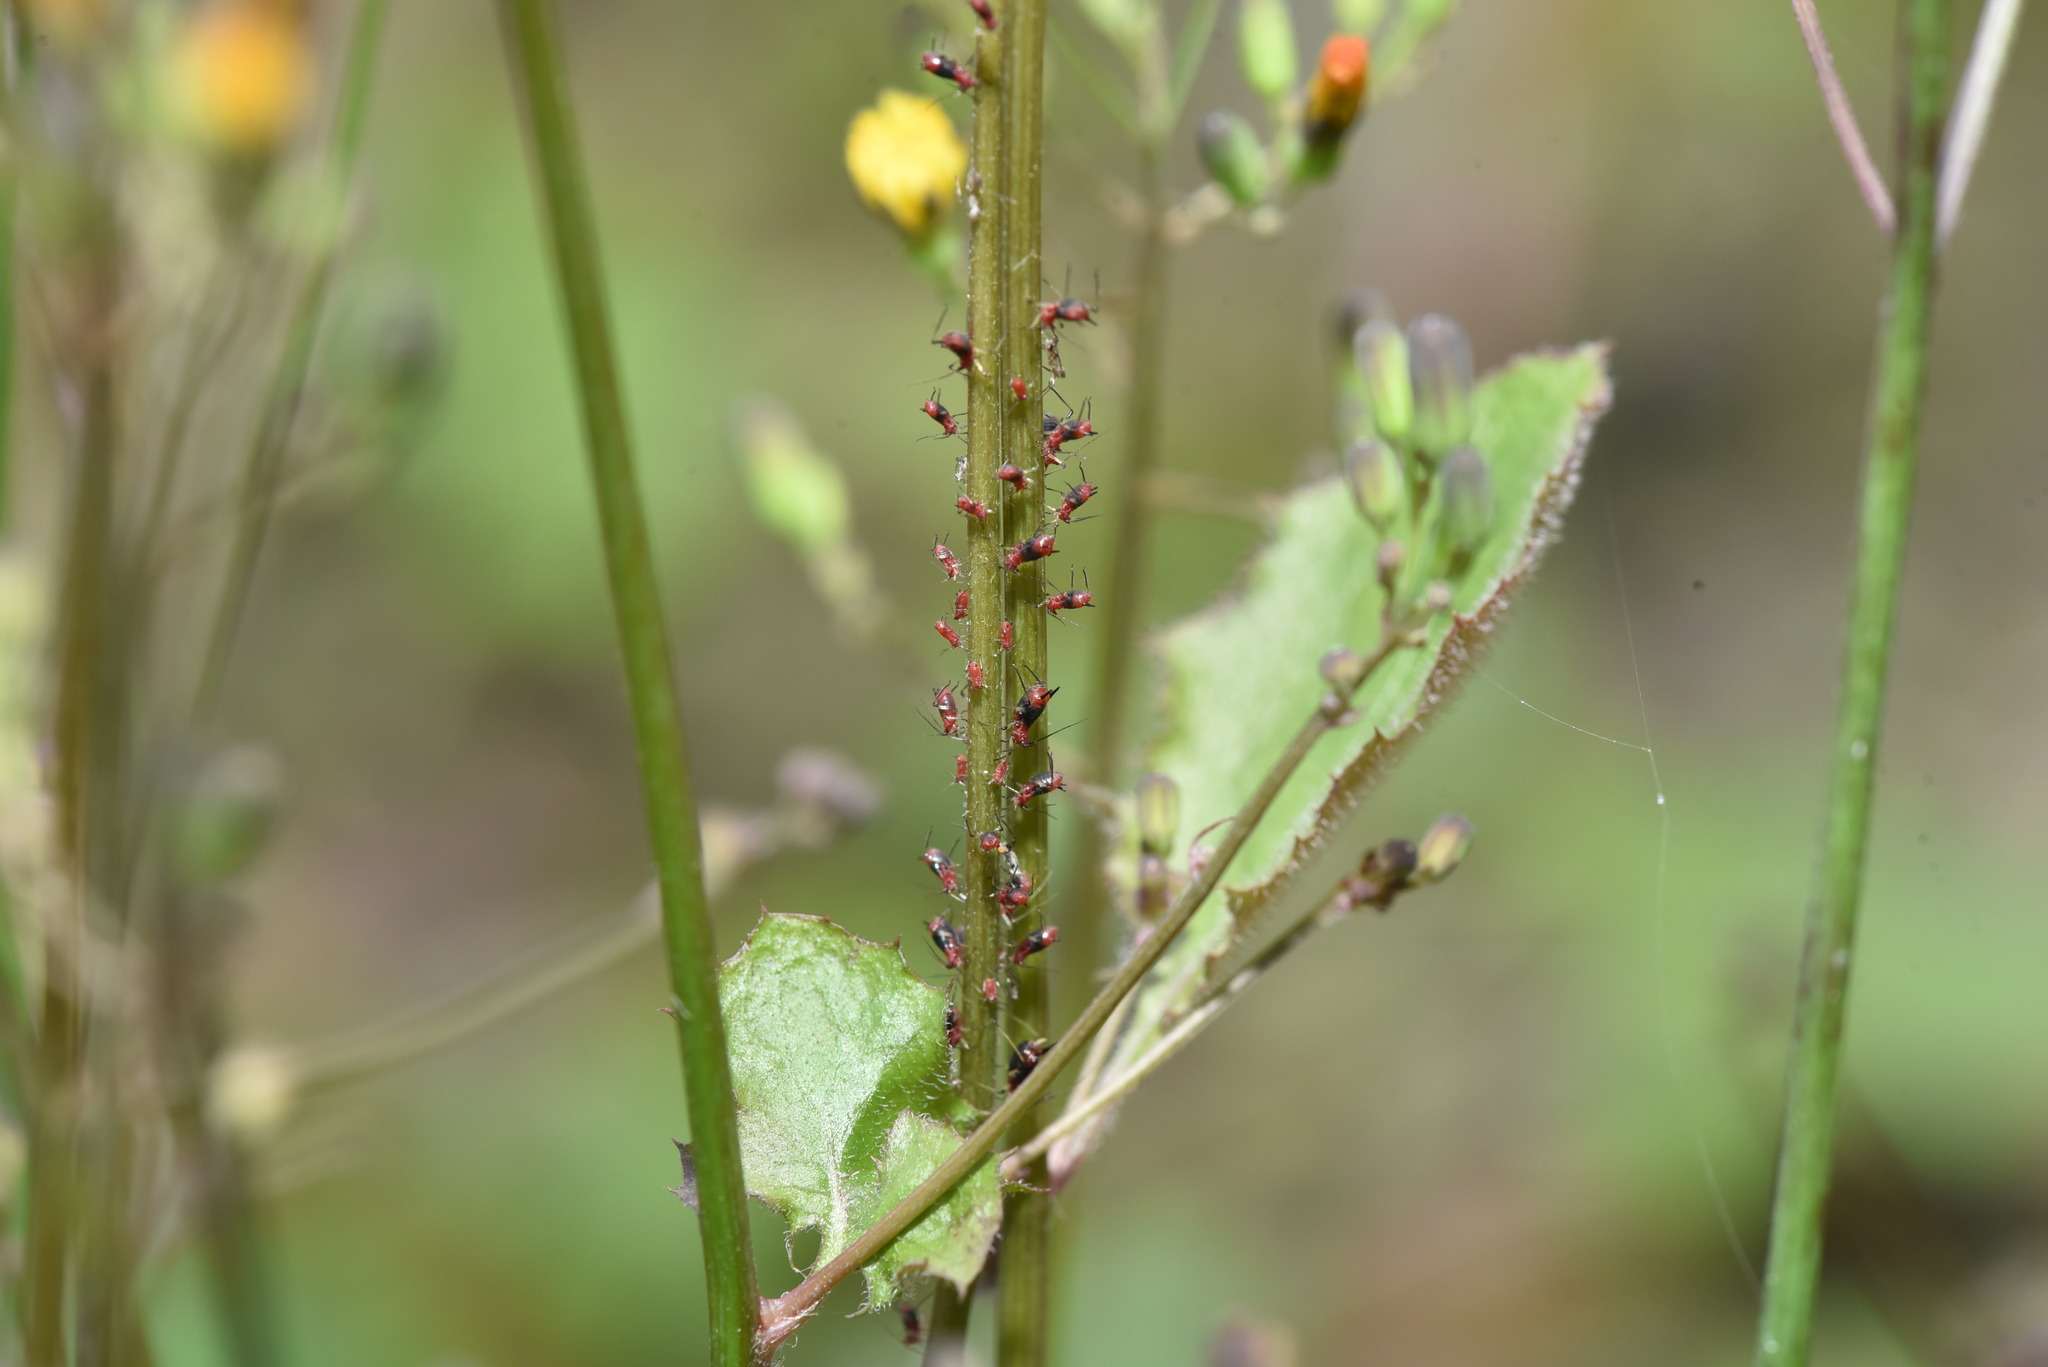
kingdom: Animalia
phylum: Arthropoda
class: Insecta
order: Hemiptera
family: Aphididae
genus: Uroleucon
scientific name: Uroleucon formosanum
